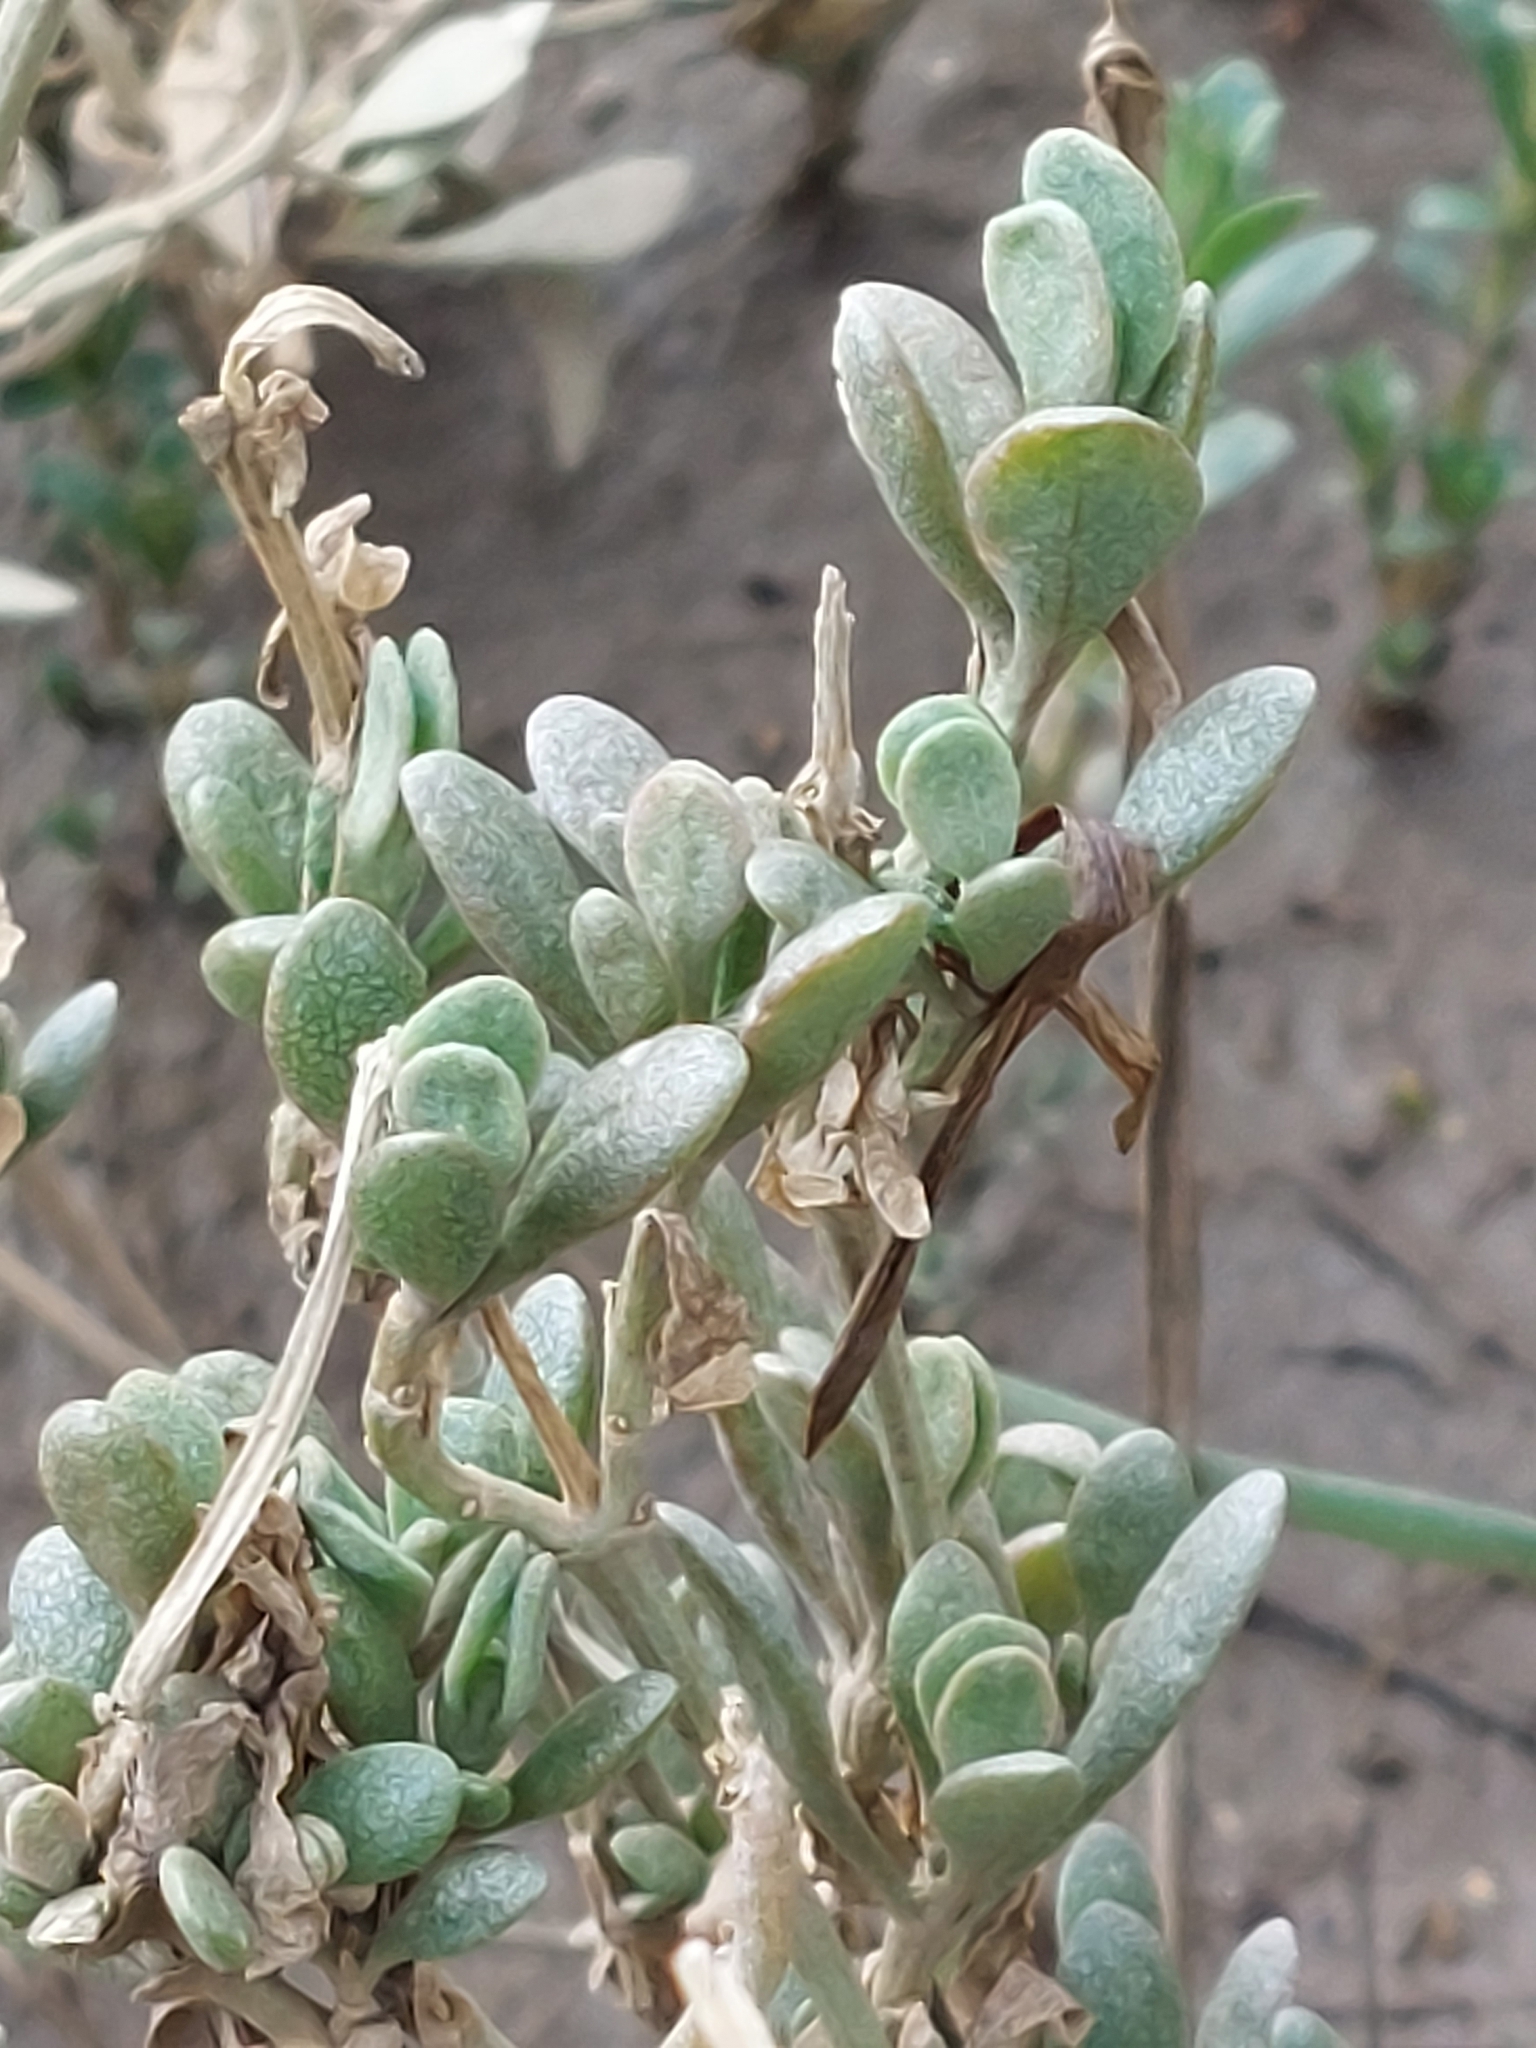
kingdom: Plantae
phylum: Tracheophyta
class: Magnoliopsida
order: Caryophyllales
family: Amaranthaceae
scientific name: Amaranthaceae
